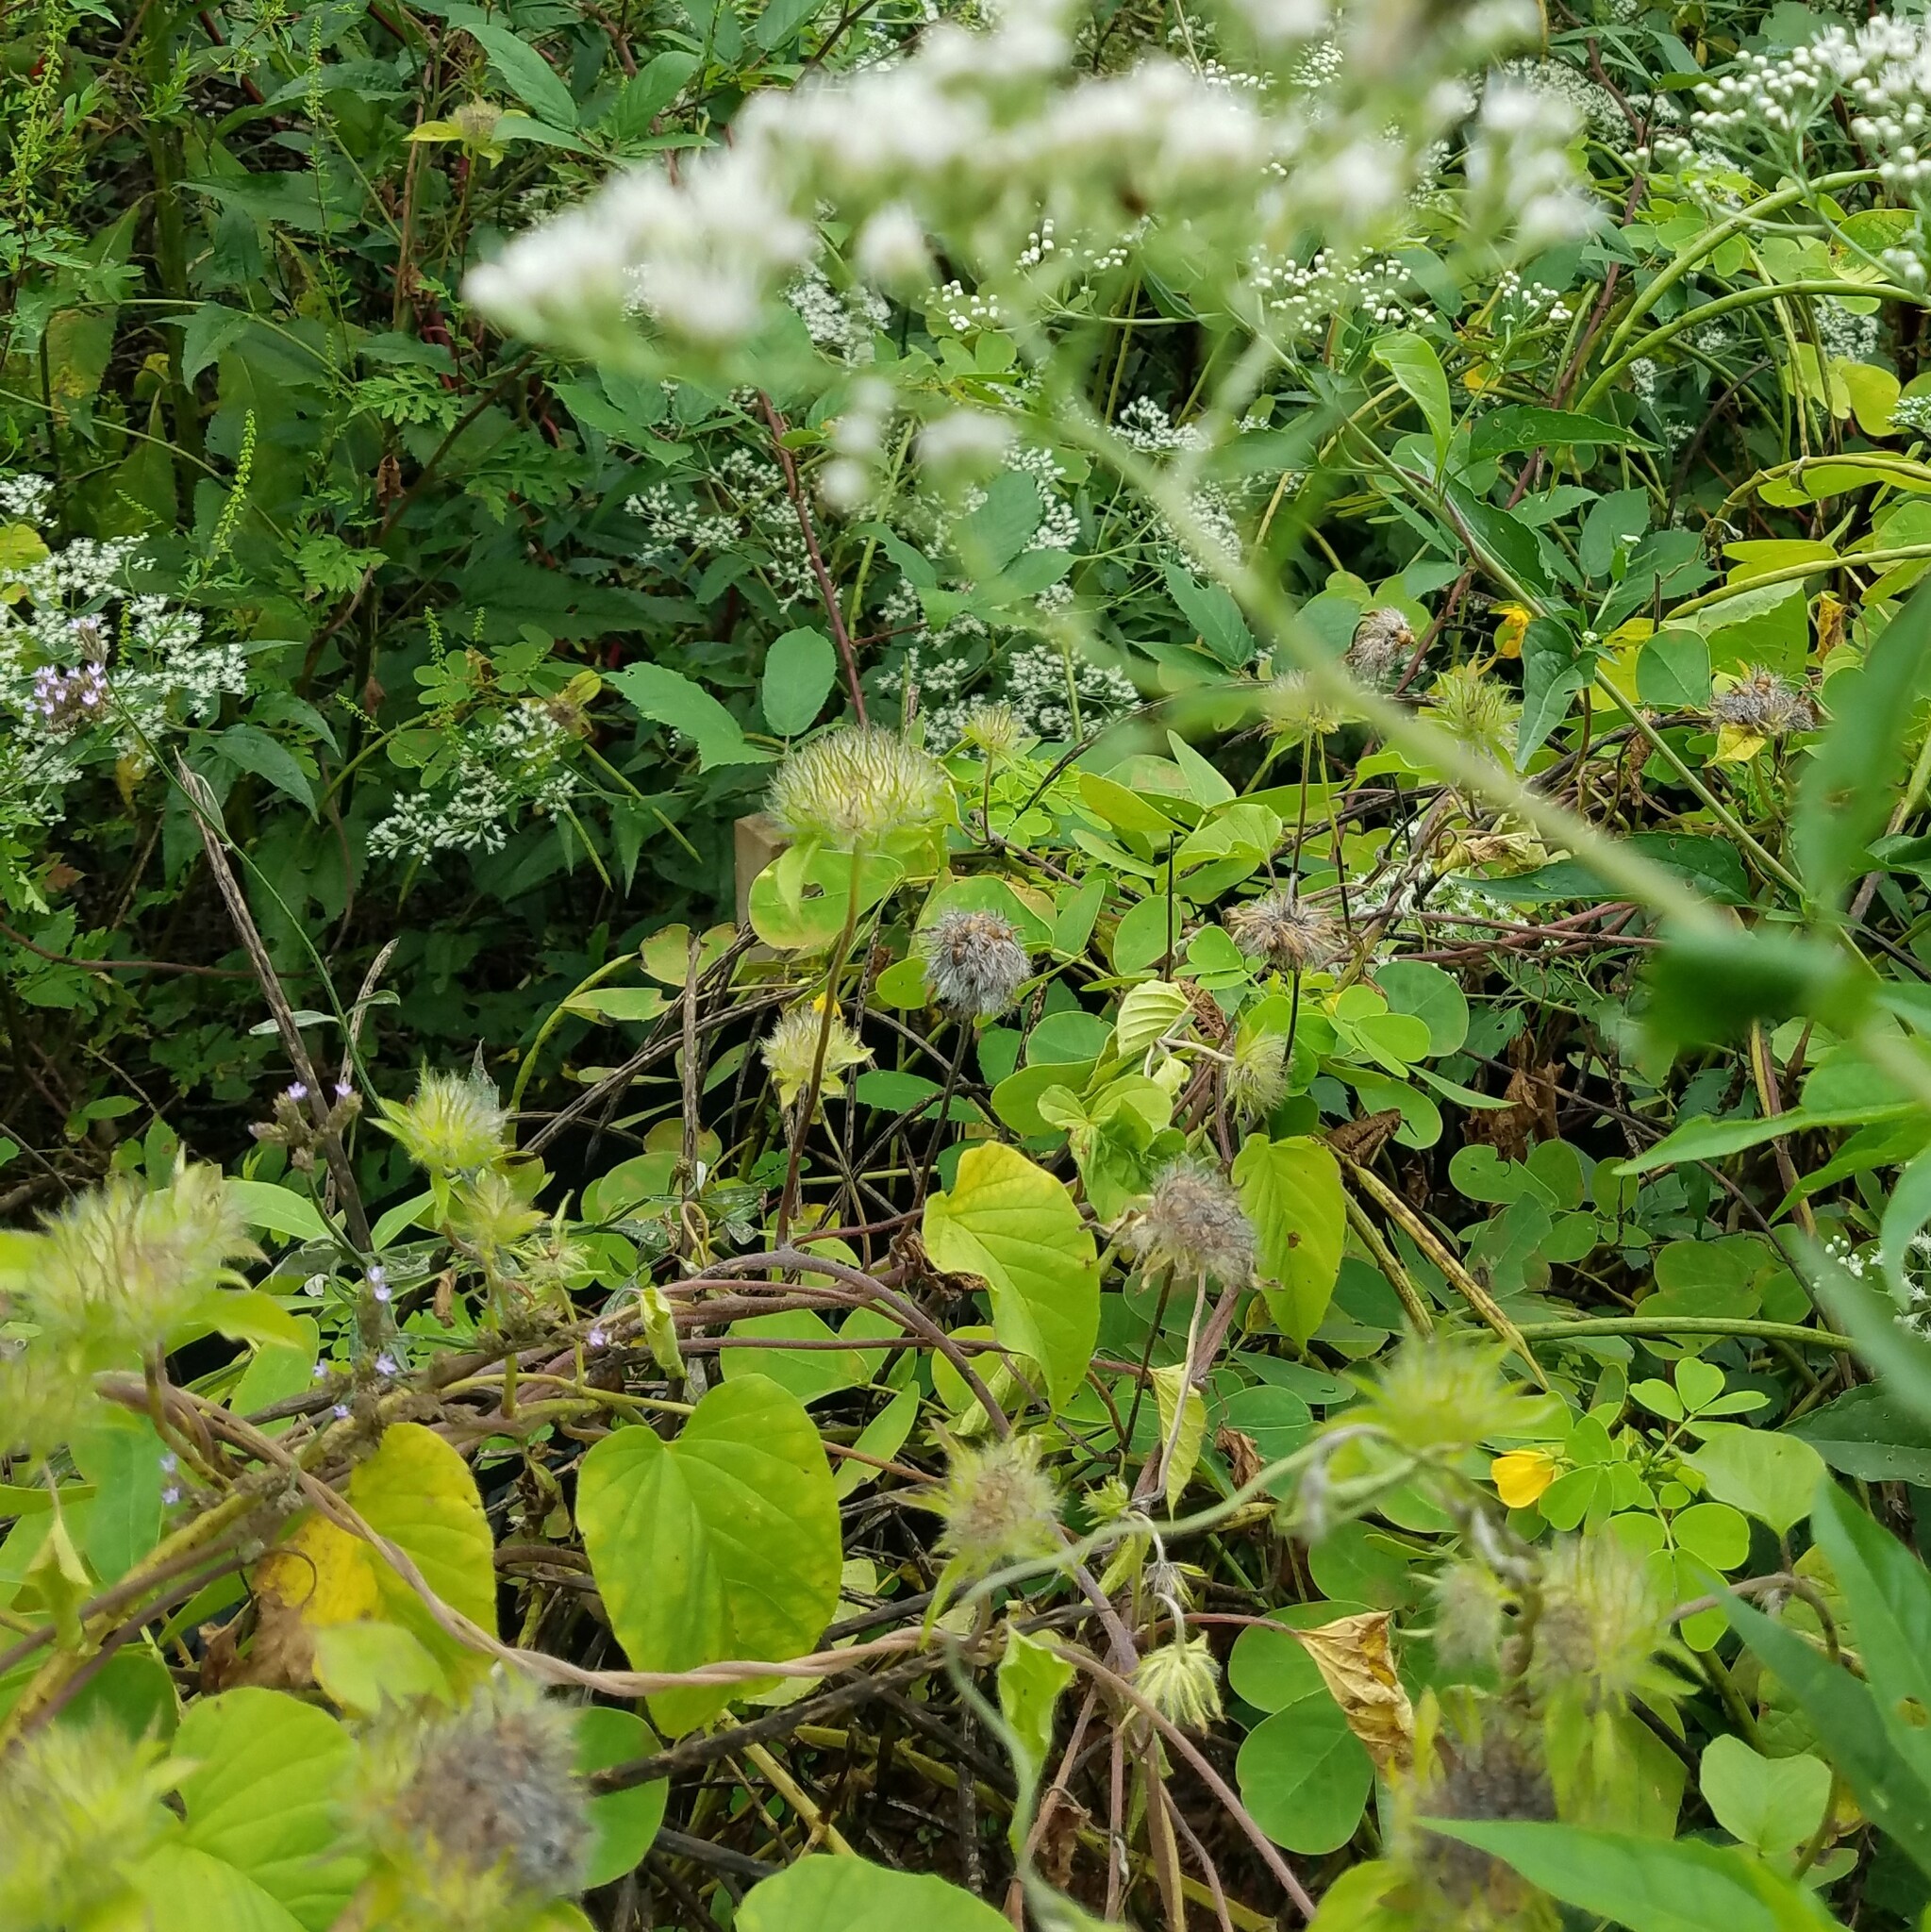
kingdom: Plantae
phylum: Tracheophyta
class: Magnoliopsida
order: Solanales
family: Convolvulaceae
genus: Jacquemontia
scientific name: Jacquemontia tamnifolia
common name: Hairy clustervine
